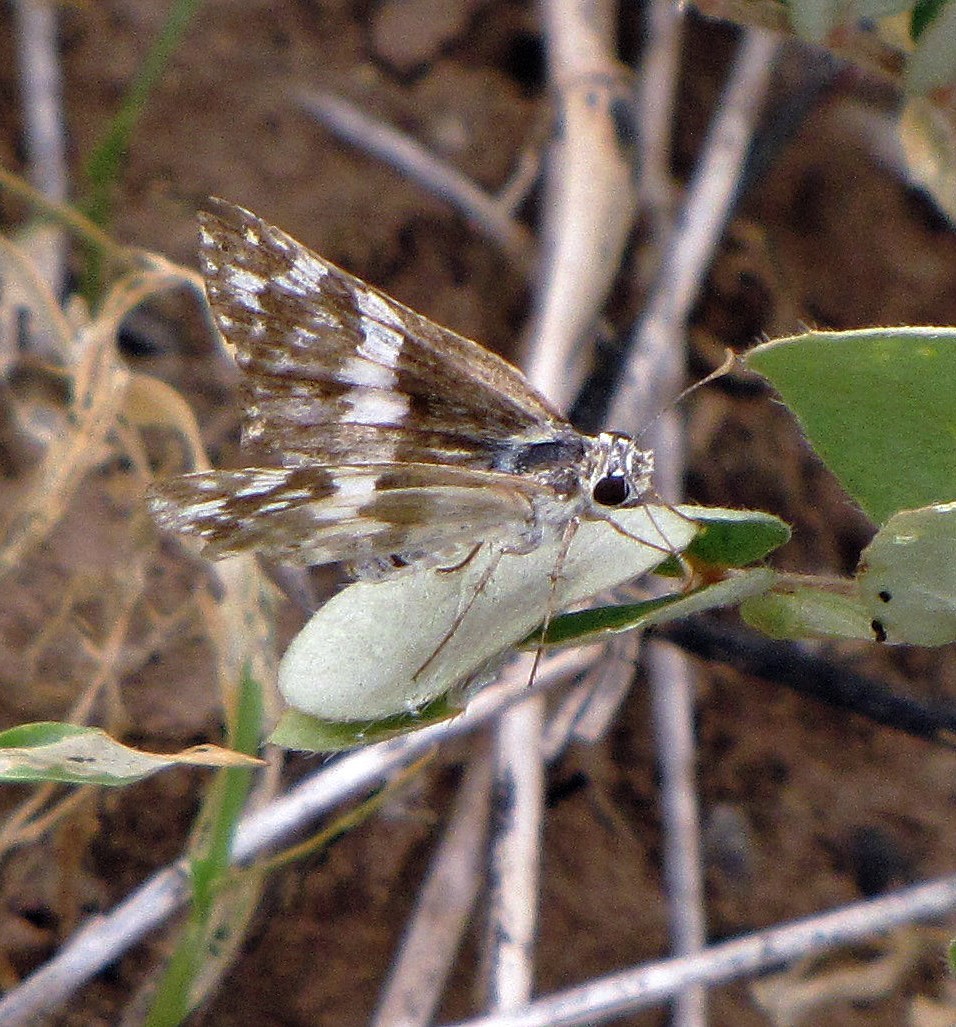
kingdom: Animalia
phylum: Arthropoda
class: Insecta
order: Lepidoptera
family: Hesperiidae
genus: Heliopyrgus
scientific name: Heliopyrgus domicella
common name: Erichson's white skipper
